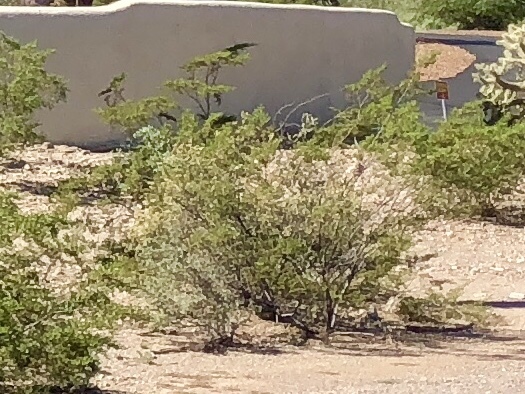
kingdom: Plantae
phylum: Tracheophyta
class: Magnoliopsida
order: Zygophyllales
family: Zygophyllaceae
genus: Larrea
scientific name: Larrea tridentata
